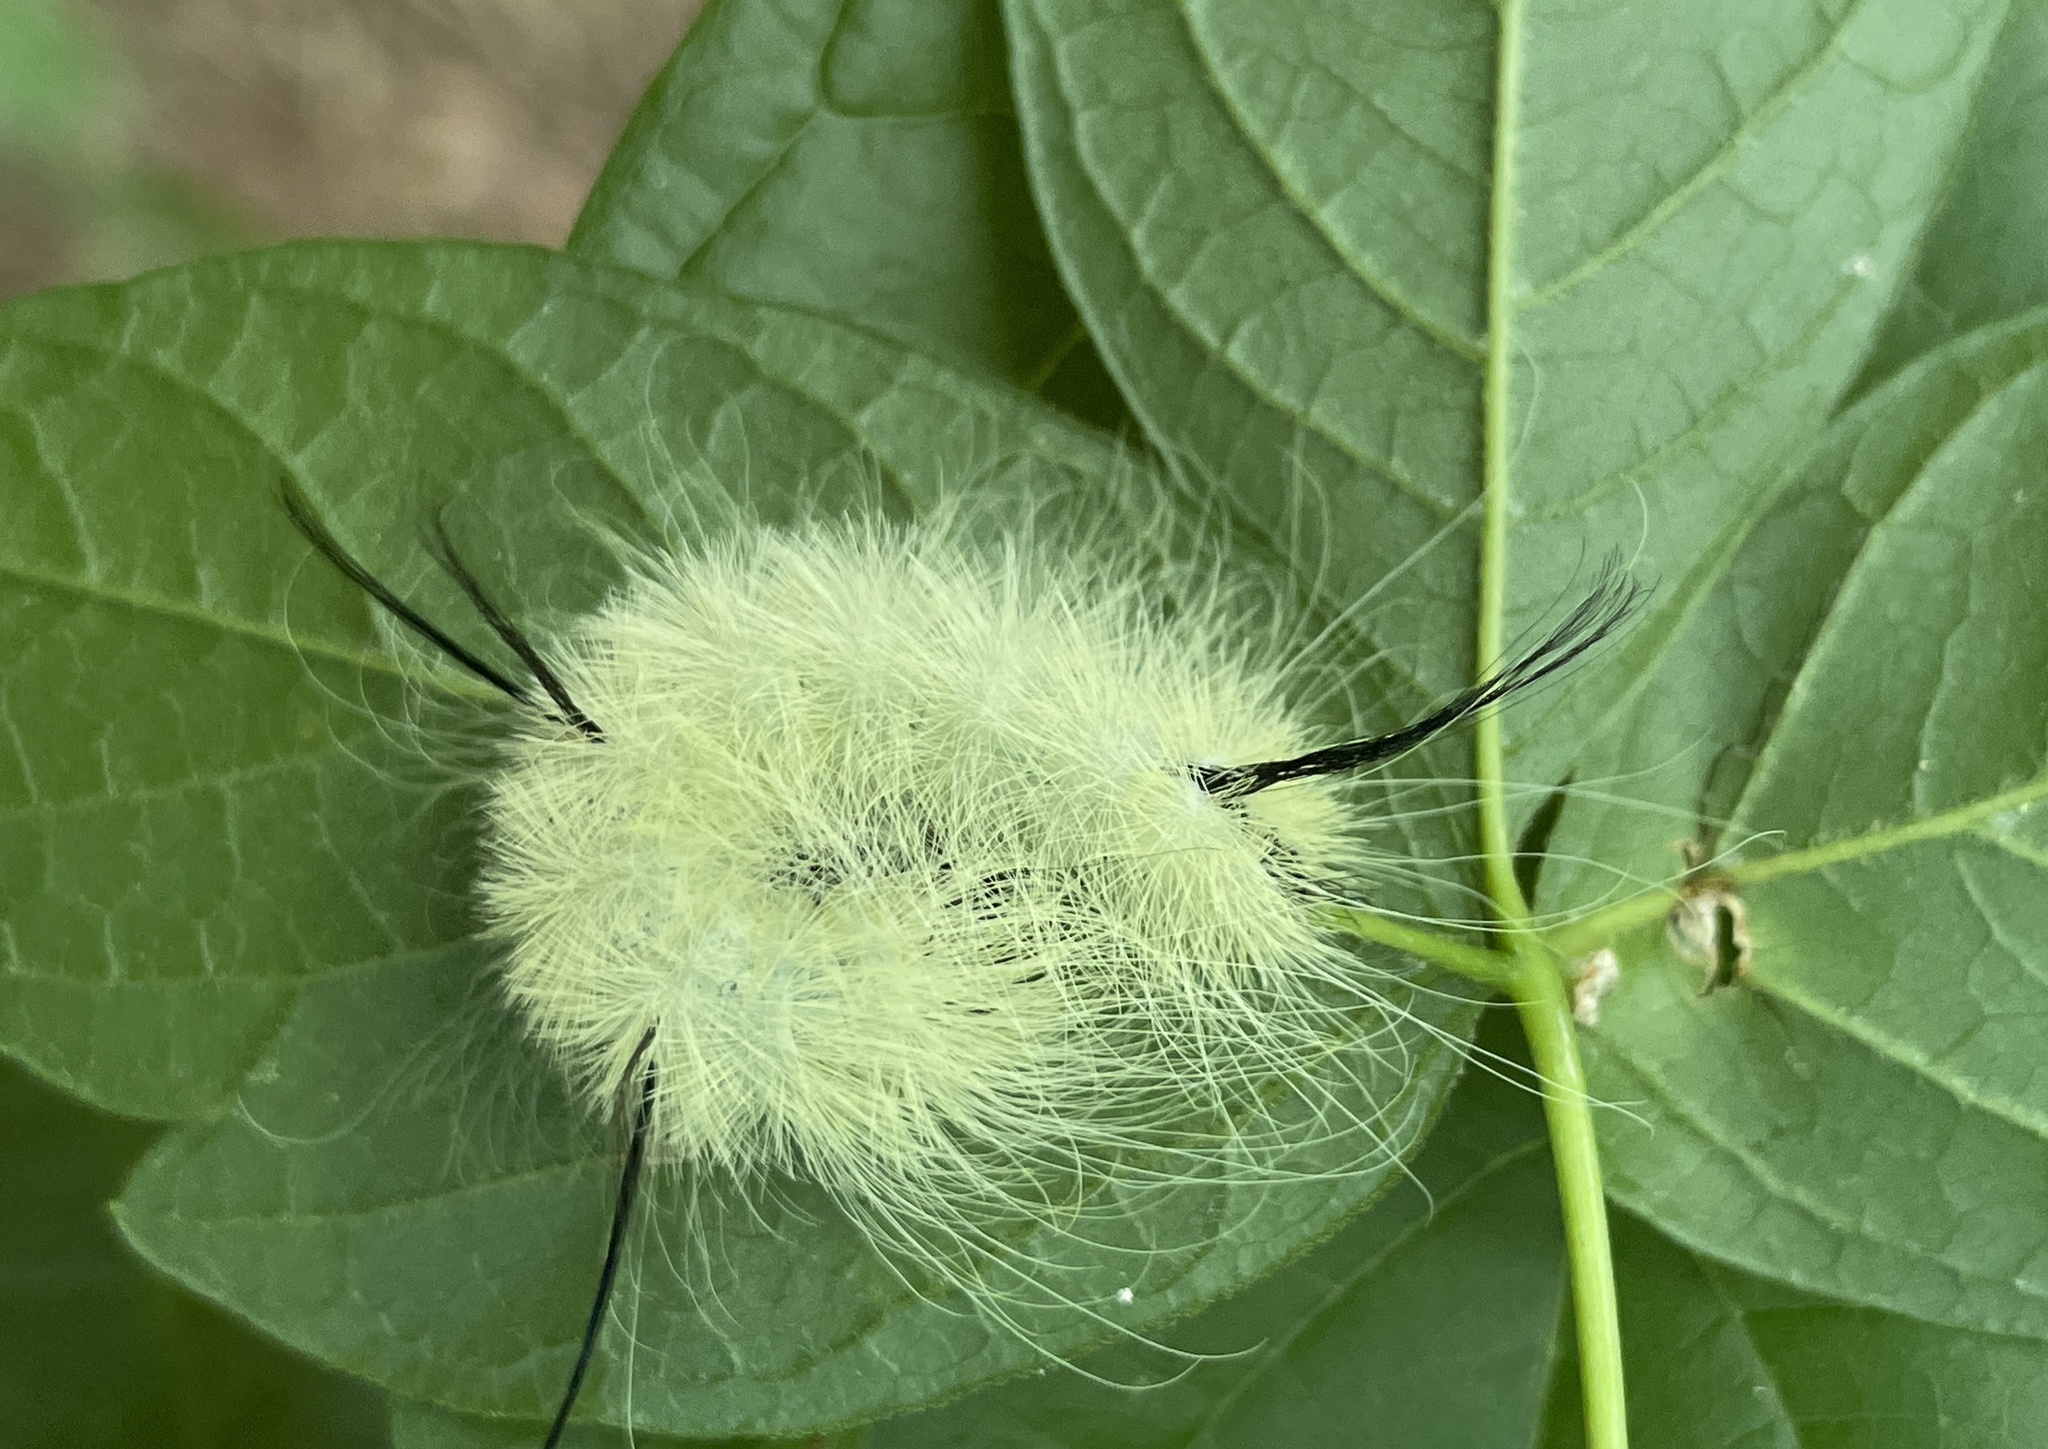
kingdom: Animalia
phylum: Arthropoda
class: Insecta
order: Lepidoptera
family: Noctuidae
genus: Acronicta
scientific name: Acronicta americana
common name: American dagger
